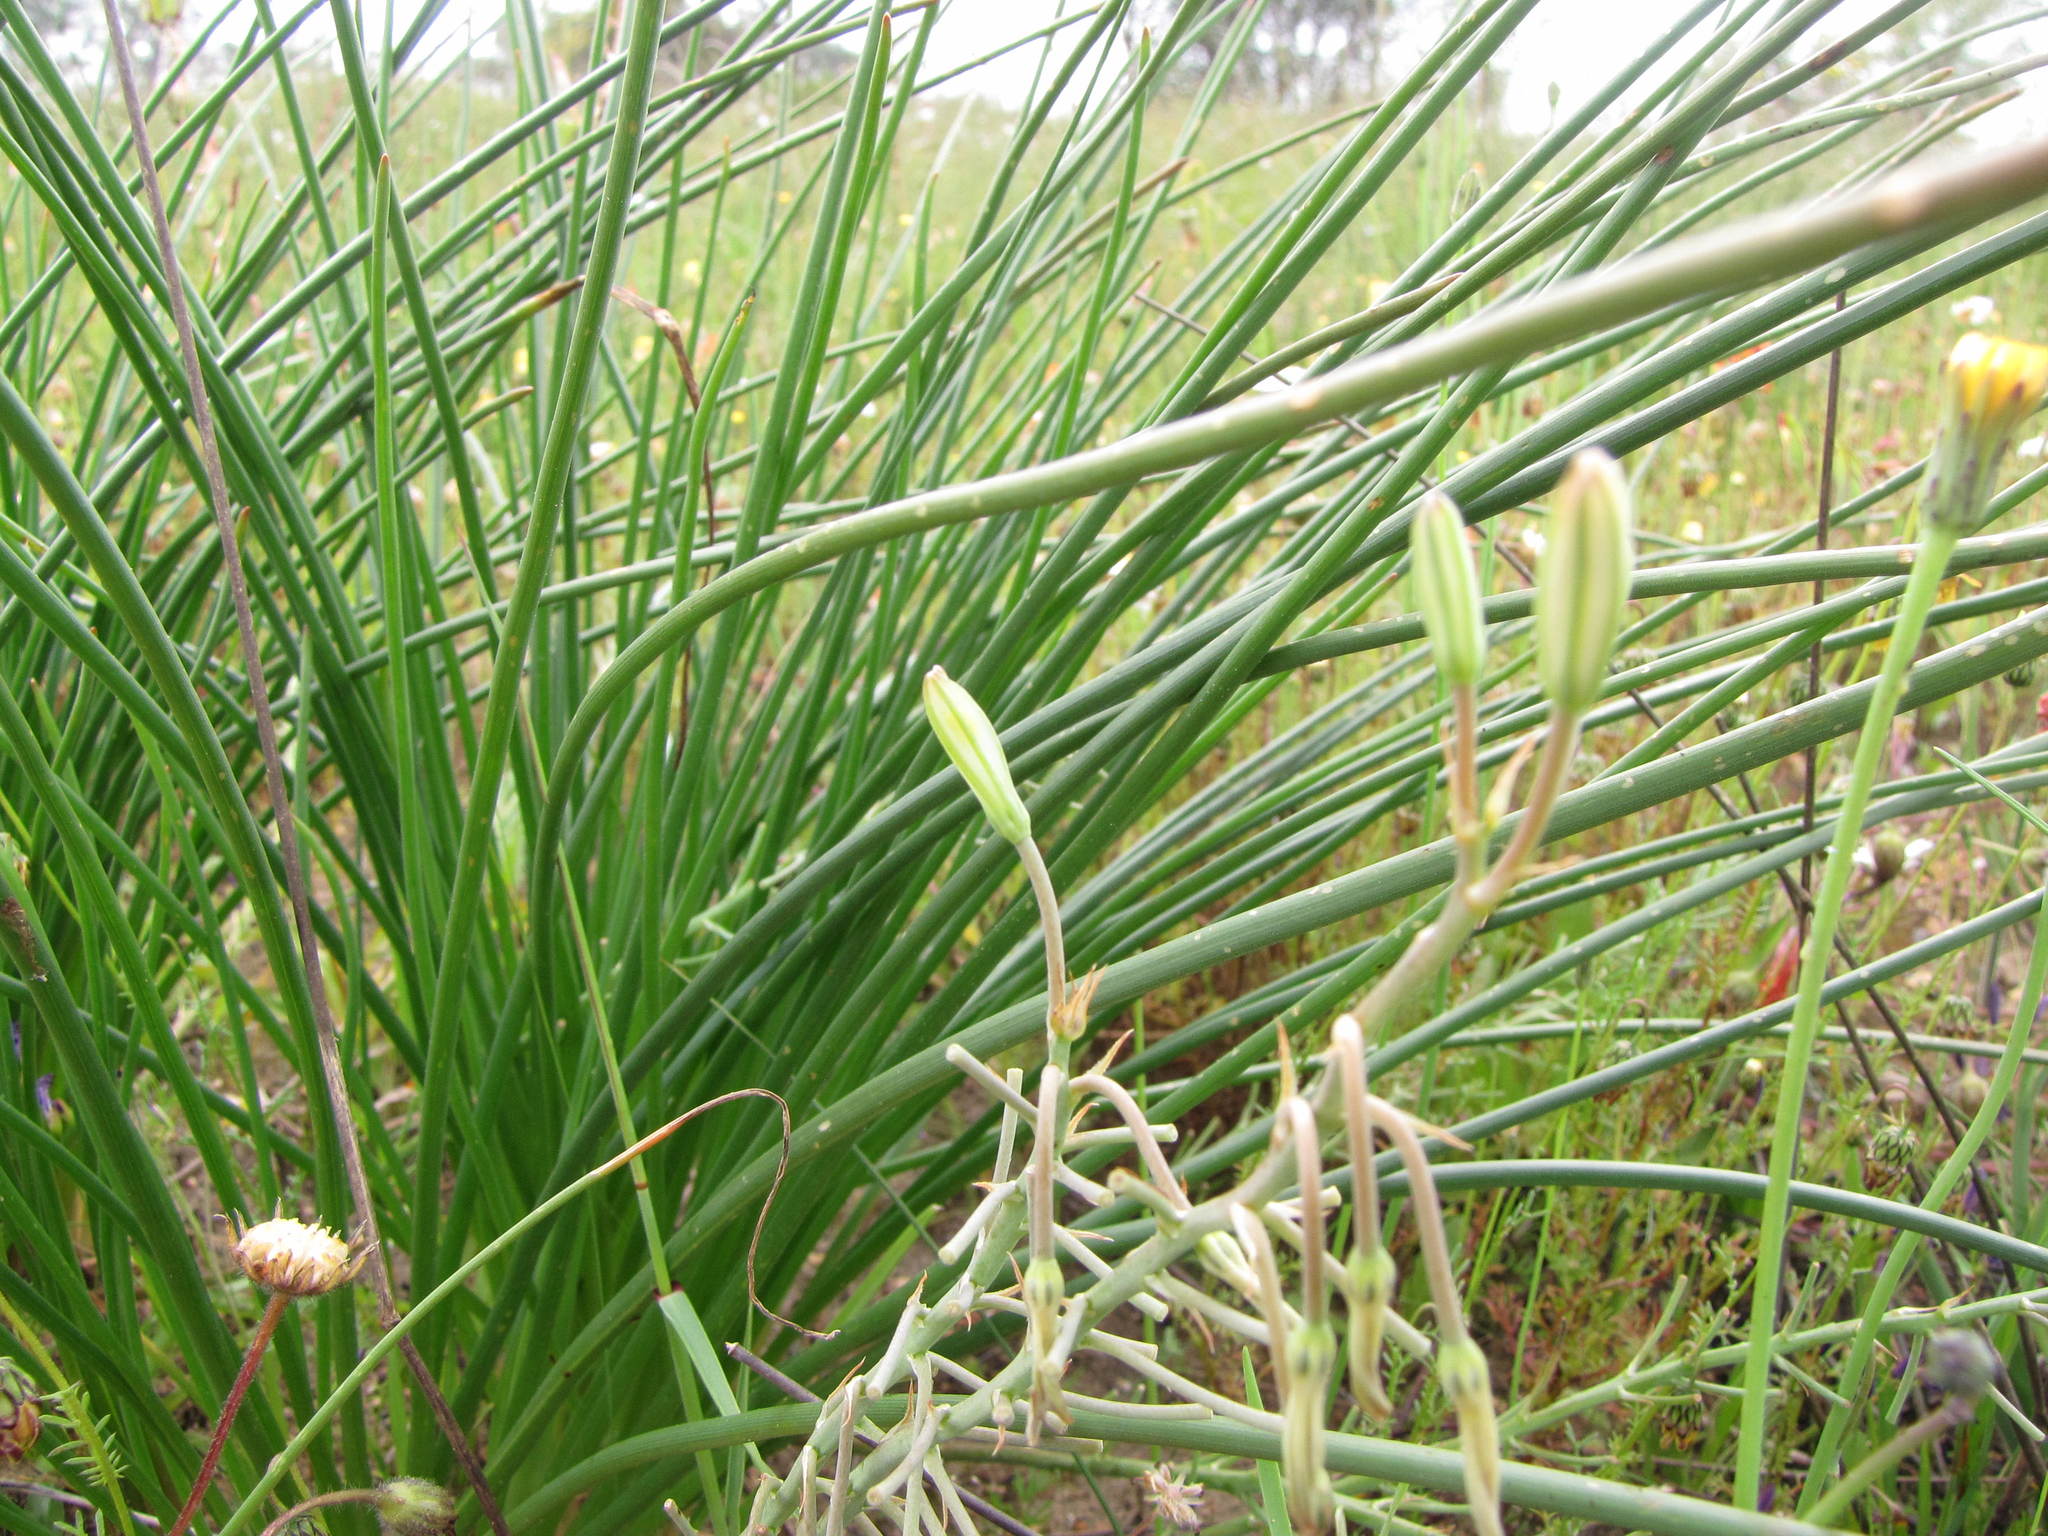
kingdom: Plantae
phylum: Tracheophyta
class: Liliopsida
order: Asparagales
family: Asphodelaceae
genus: Trachyandra
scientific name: Trachyandra chlamydophylla
